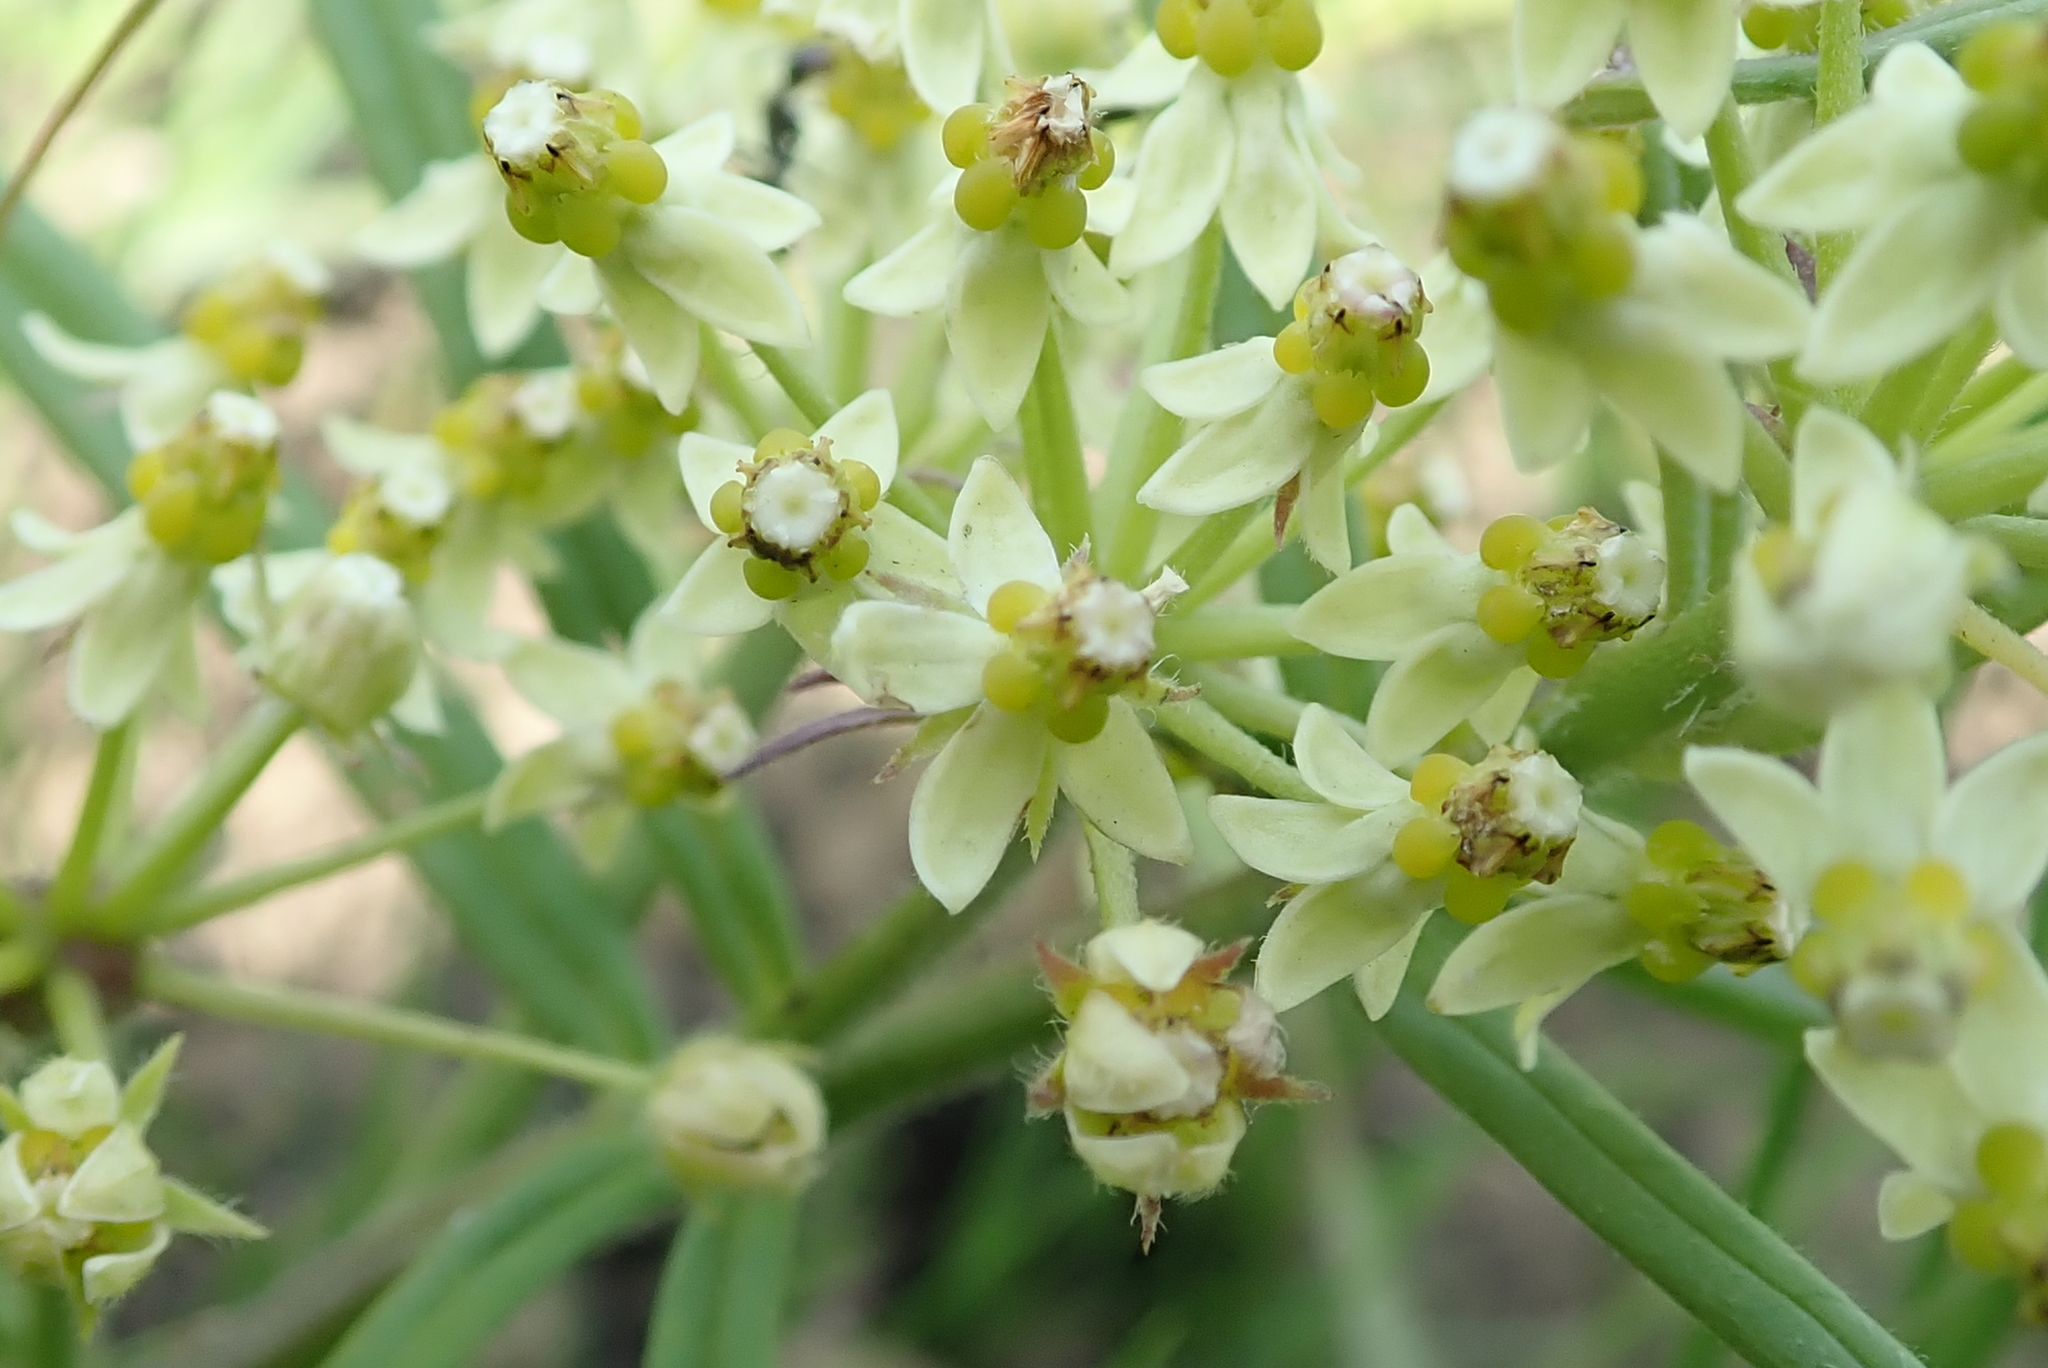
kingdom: Plantae
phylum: Tracheophyta
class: Magnoliopsida
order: Gentianales
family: Apocynaceae
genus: Xysmalobium
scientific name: Xysmalobium involucratum
